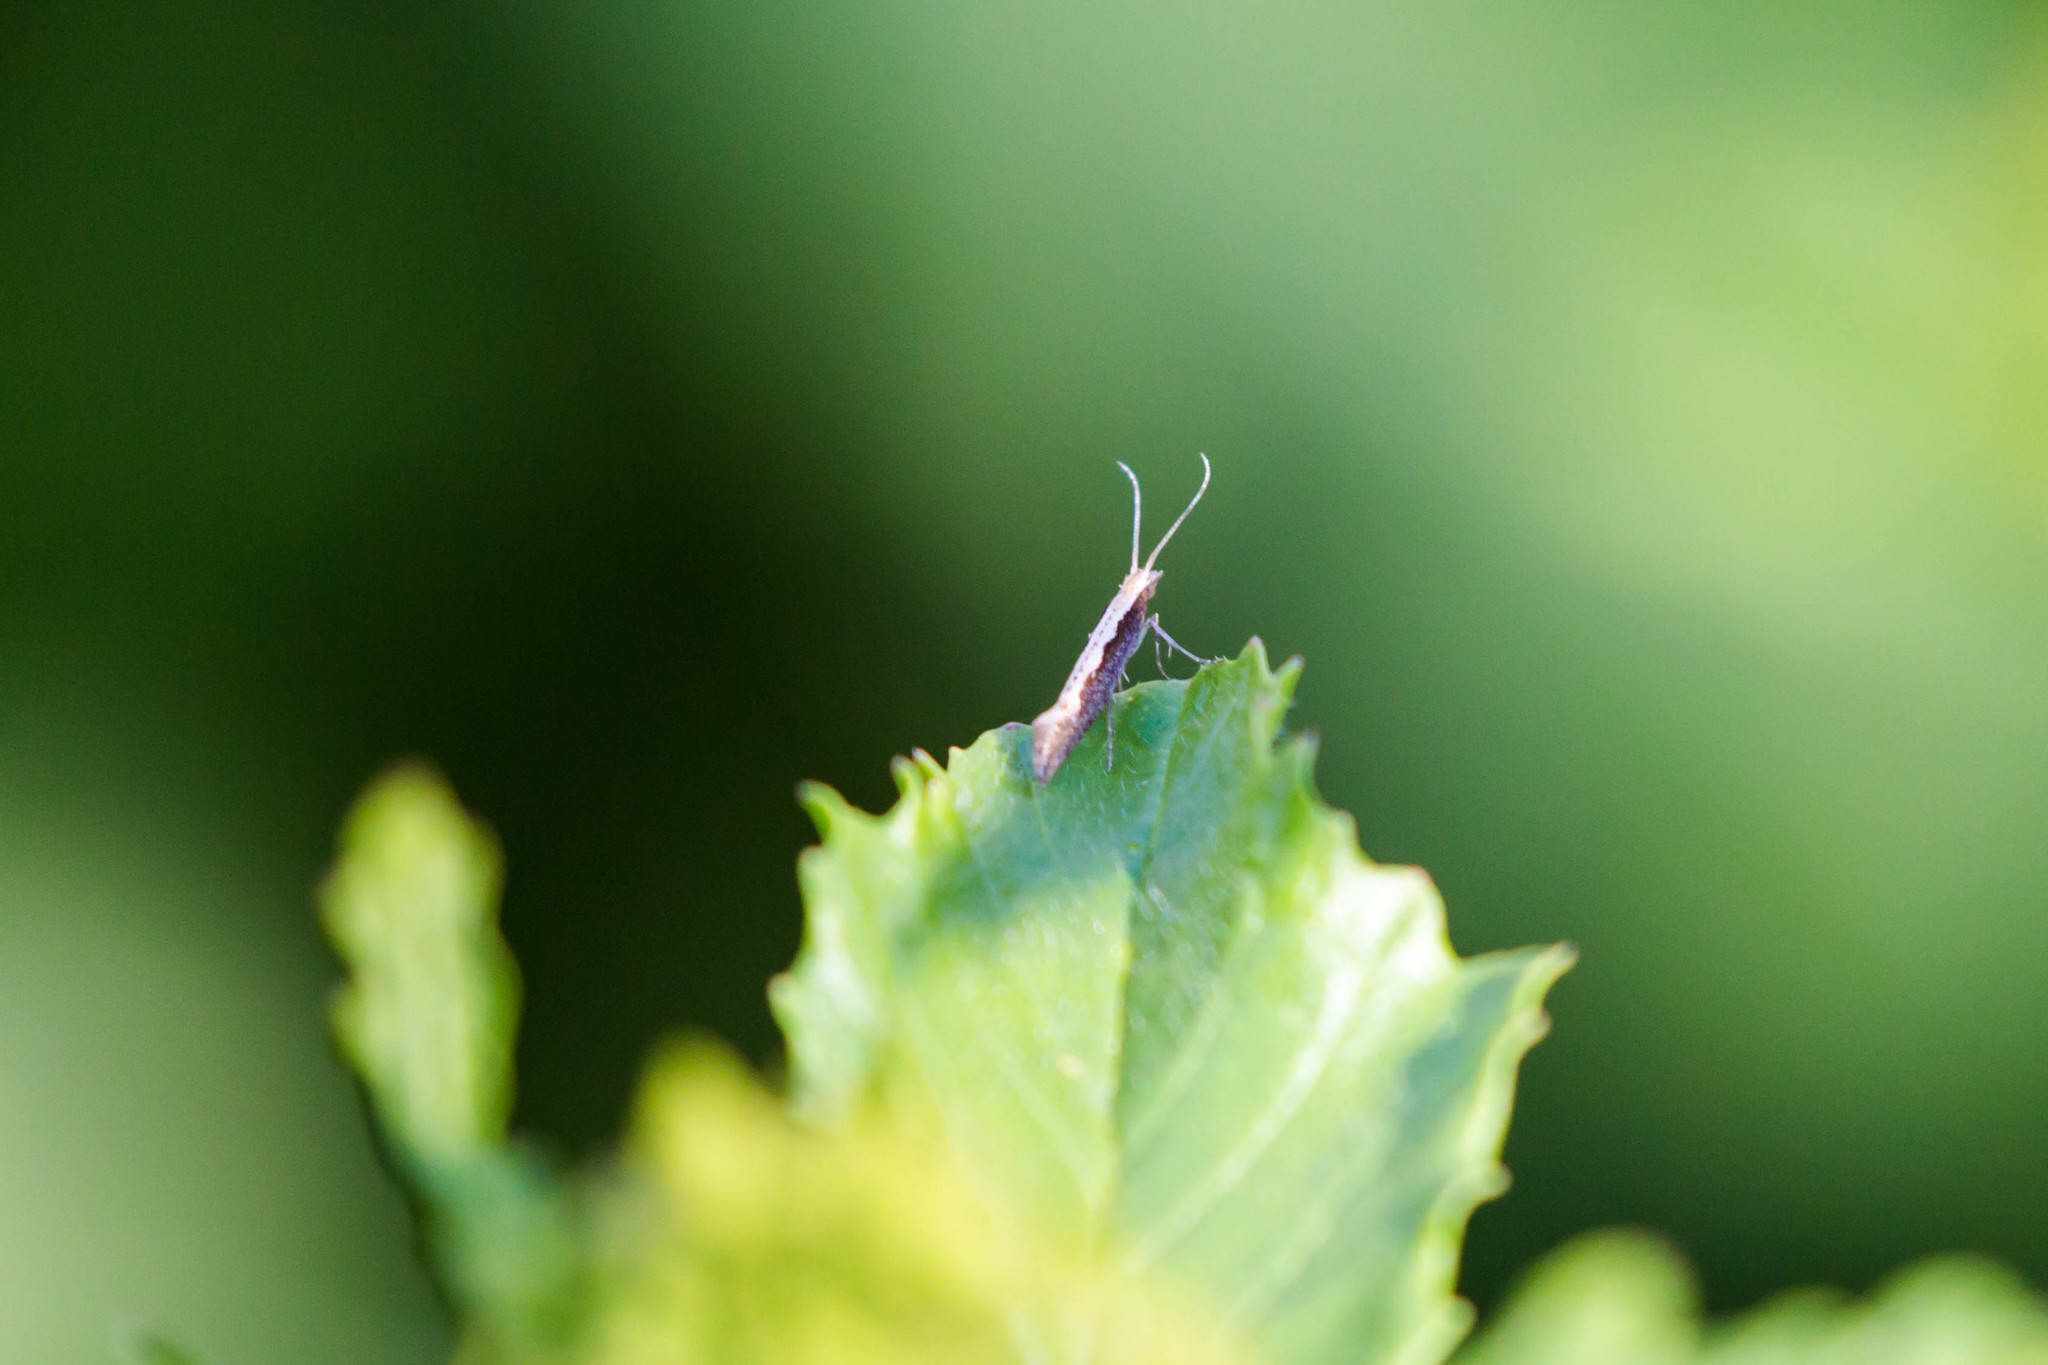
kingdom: Animalia
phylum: Arthropoda
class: Insecta
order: Lepidoptera
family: Plutellidae
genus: Plutella
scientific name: Plutella xylostella
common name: Diamond-back moth
